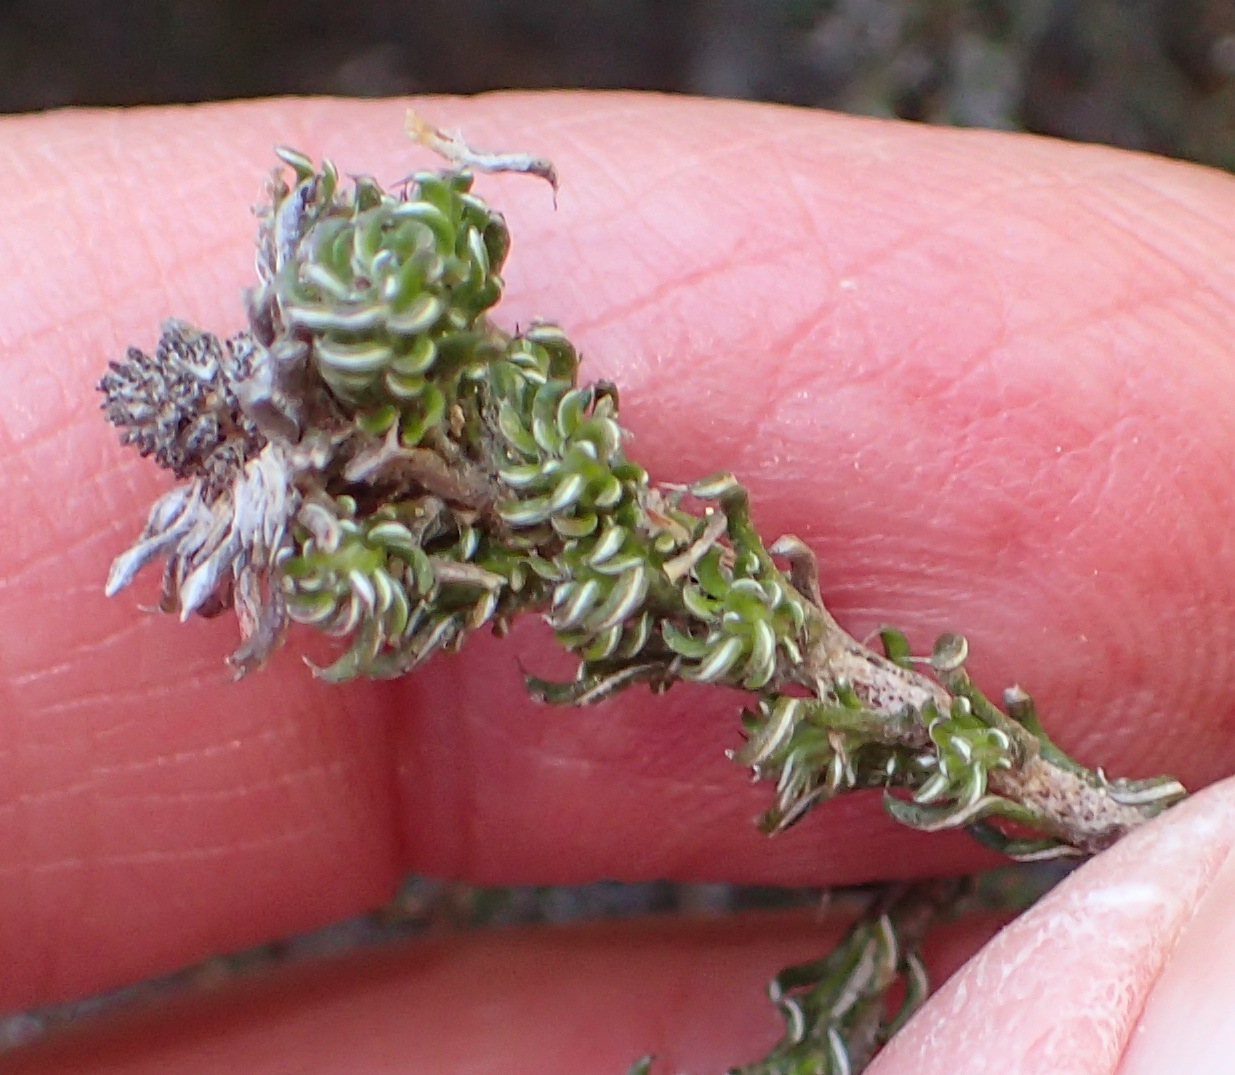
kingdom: Plantae
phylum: Tracheophyta
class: Magnoliopsida
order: Asterales
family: Asteraceae
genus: Disparago
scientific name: Disparago anomala
